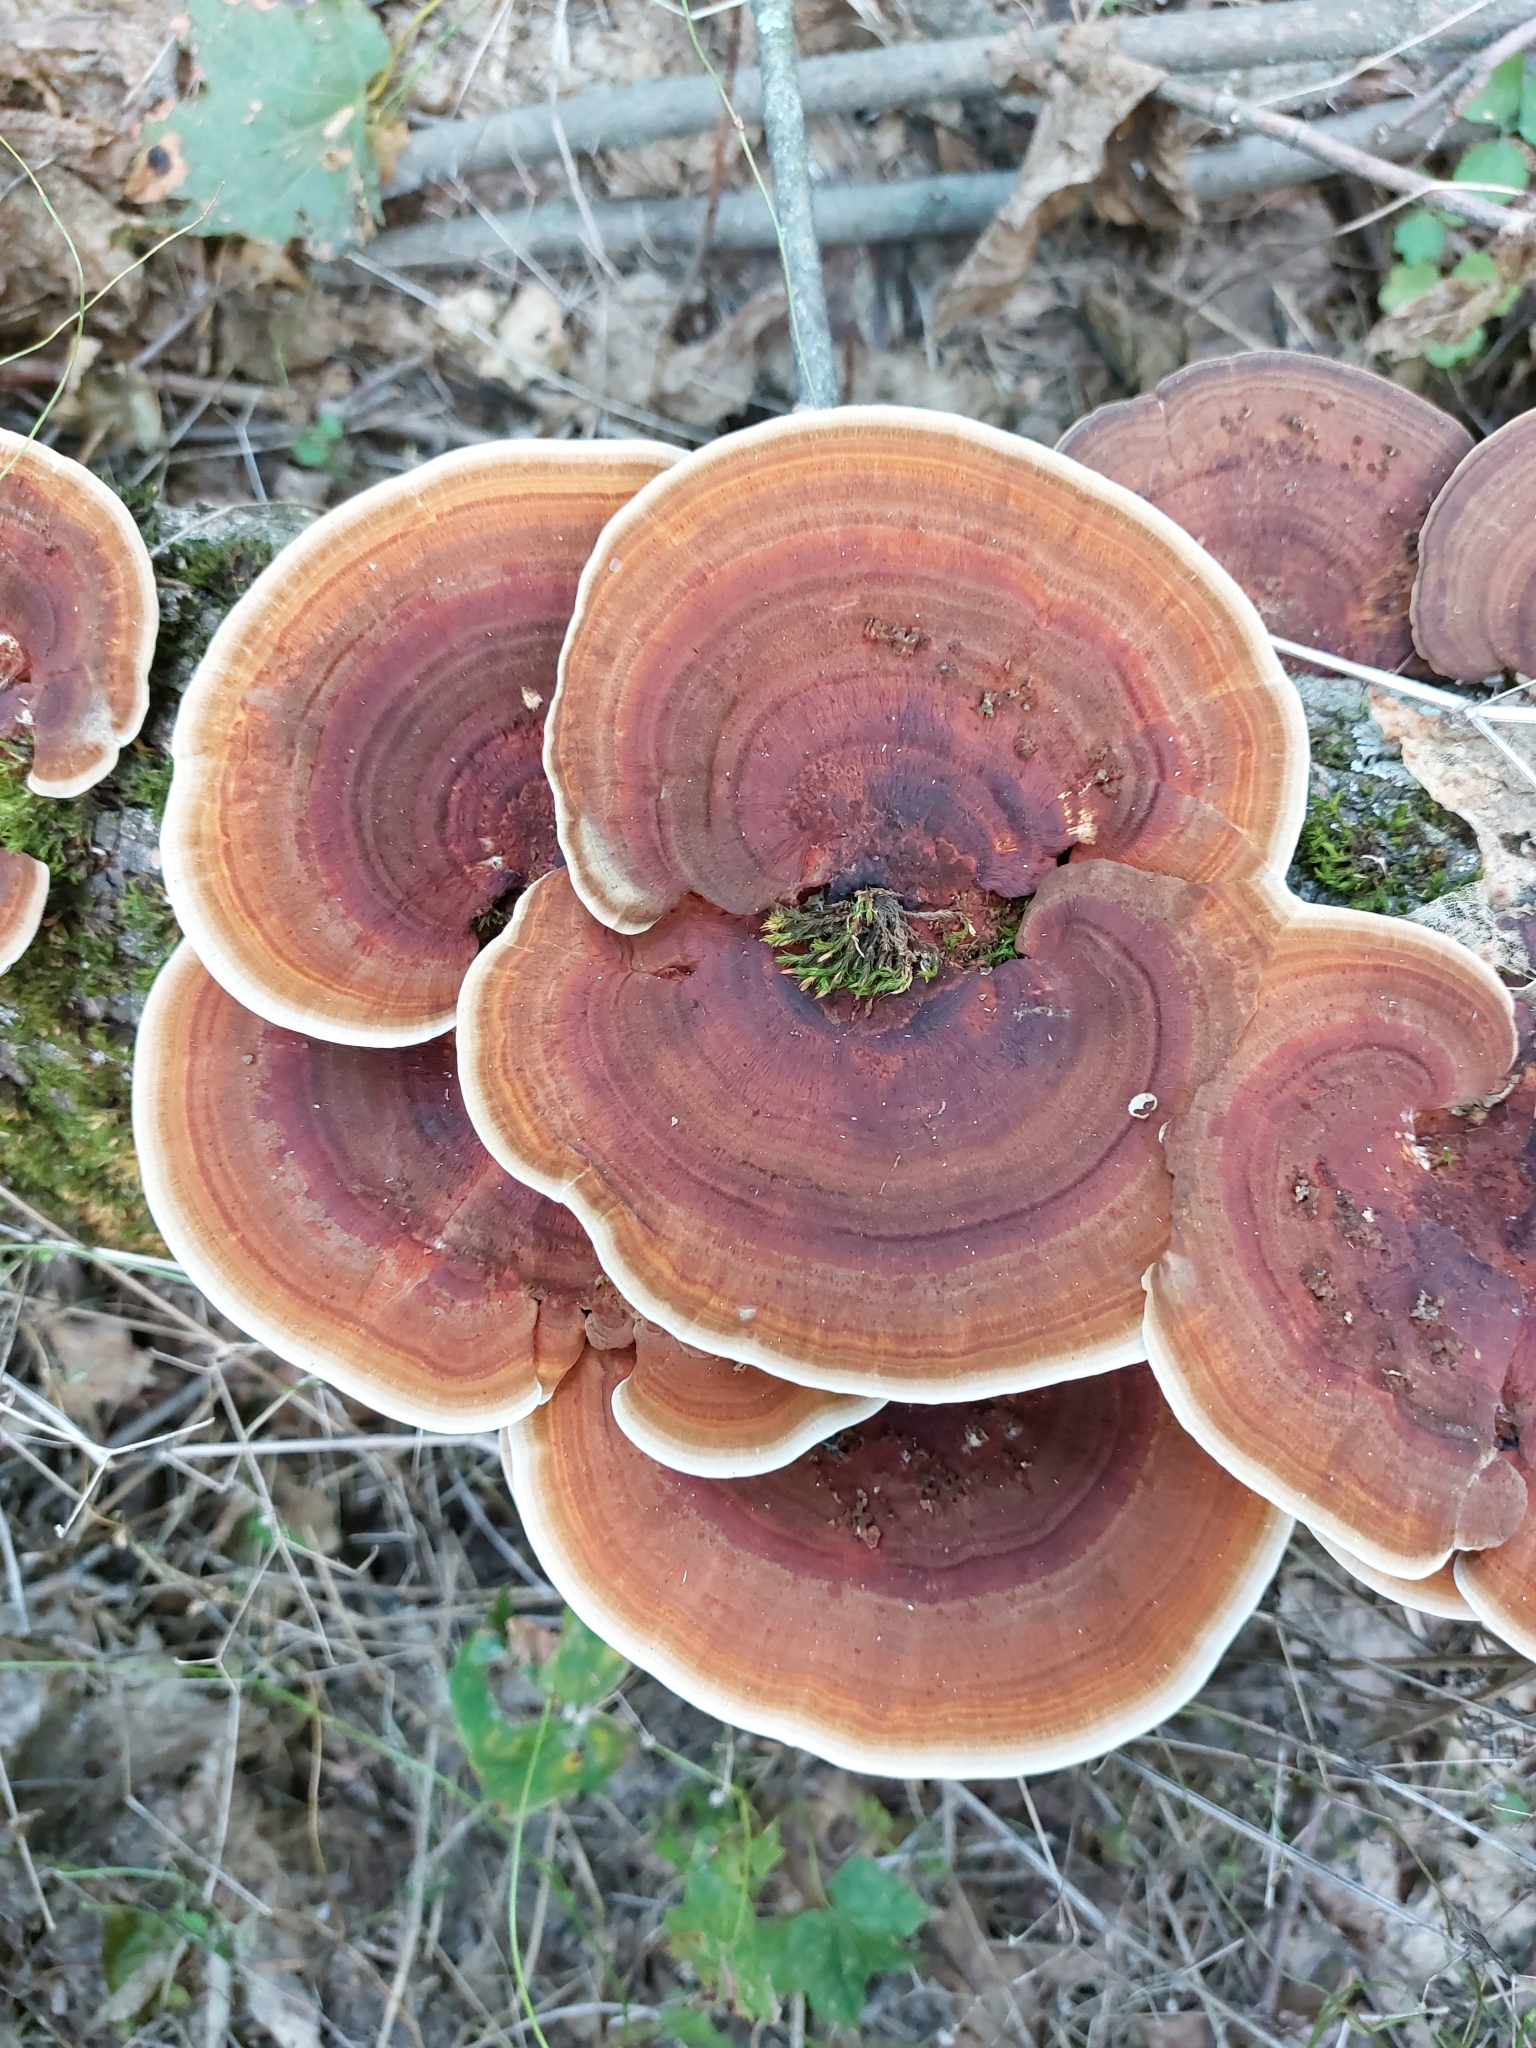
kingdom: Fungi
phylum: Basidiomycota
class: Agaricomycetes
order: Polyporales
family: Polyporaceae
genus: Daedaleopsis
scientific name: Daedaleopsis confragosa
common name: Blushing bracket
